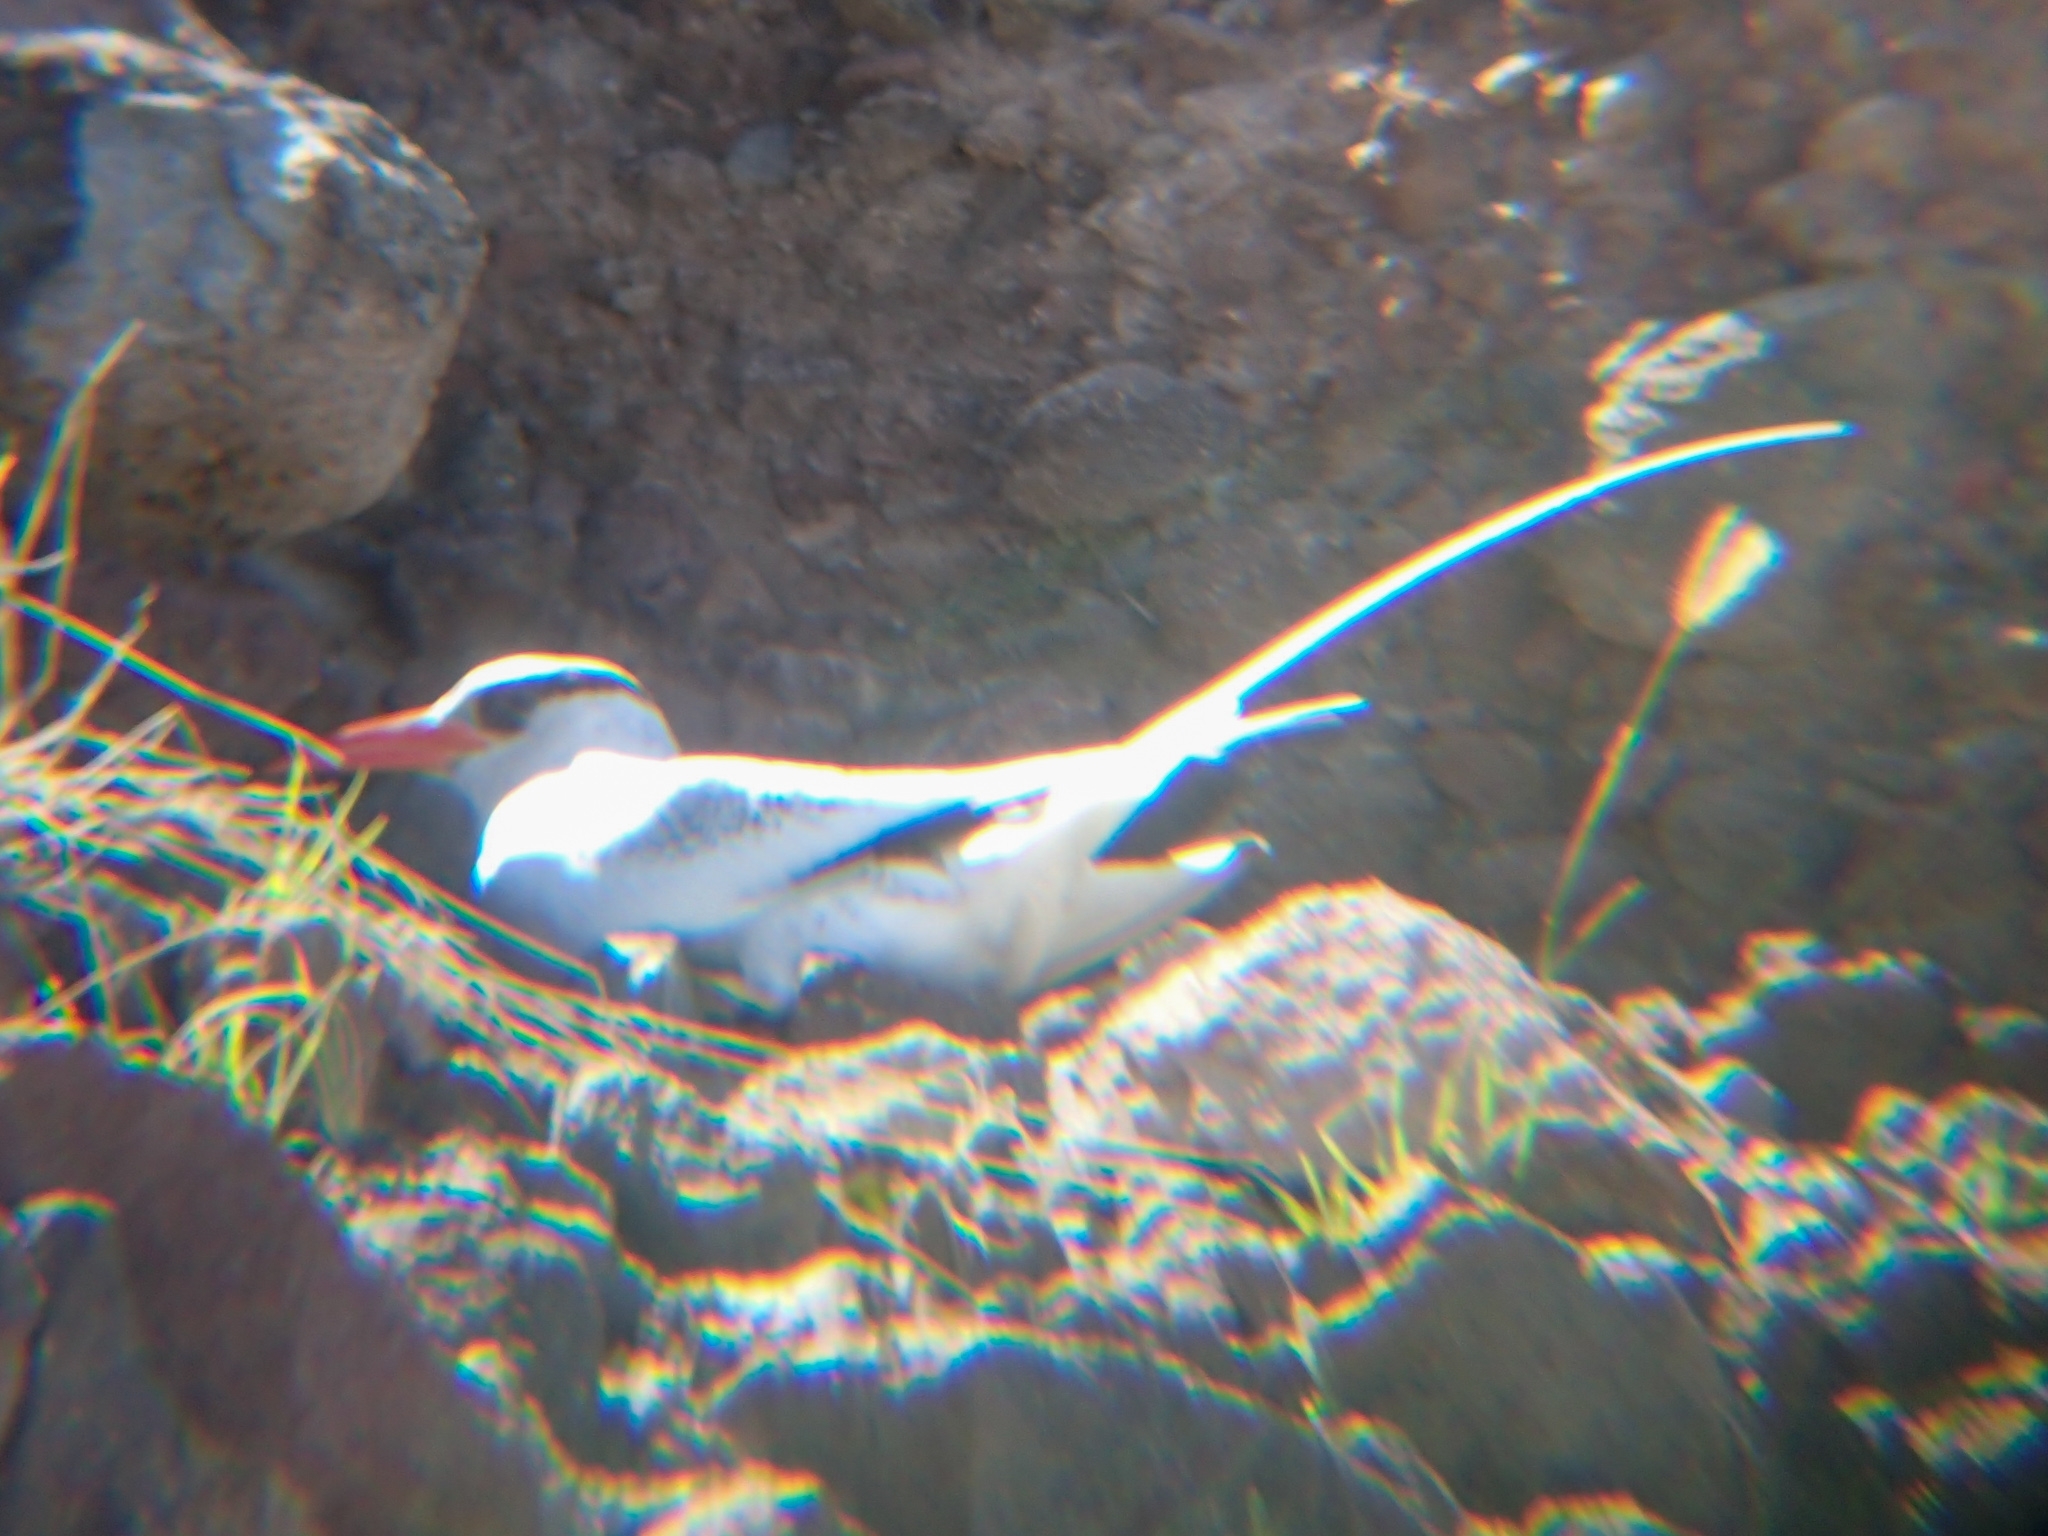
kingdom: Animalia
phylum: Chordata
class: Aves
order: Phaethontiformes
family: Phaethontidae
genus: Phaethon
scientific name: Phaethon aethereus
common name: Red-billed tropicbird
